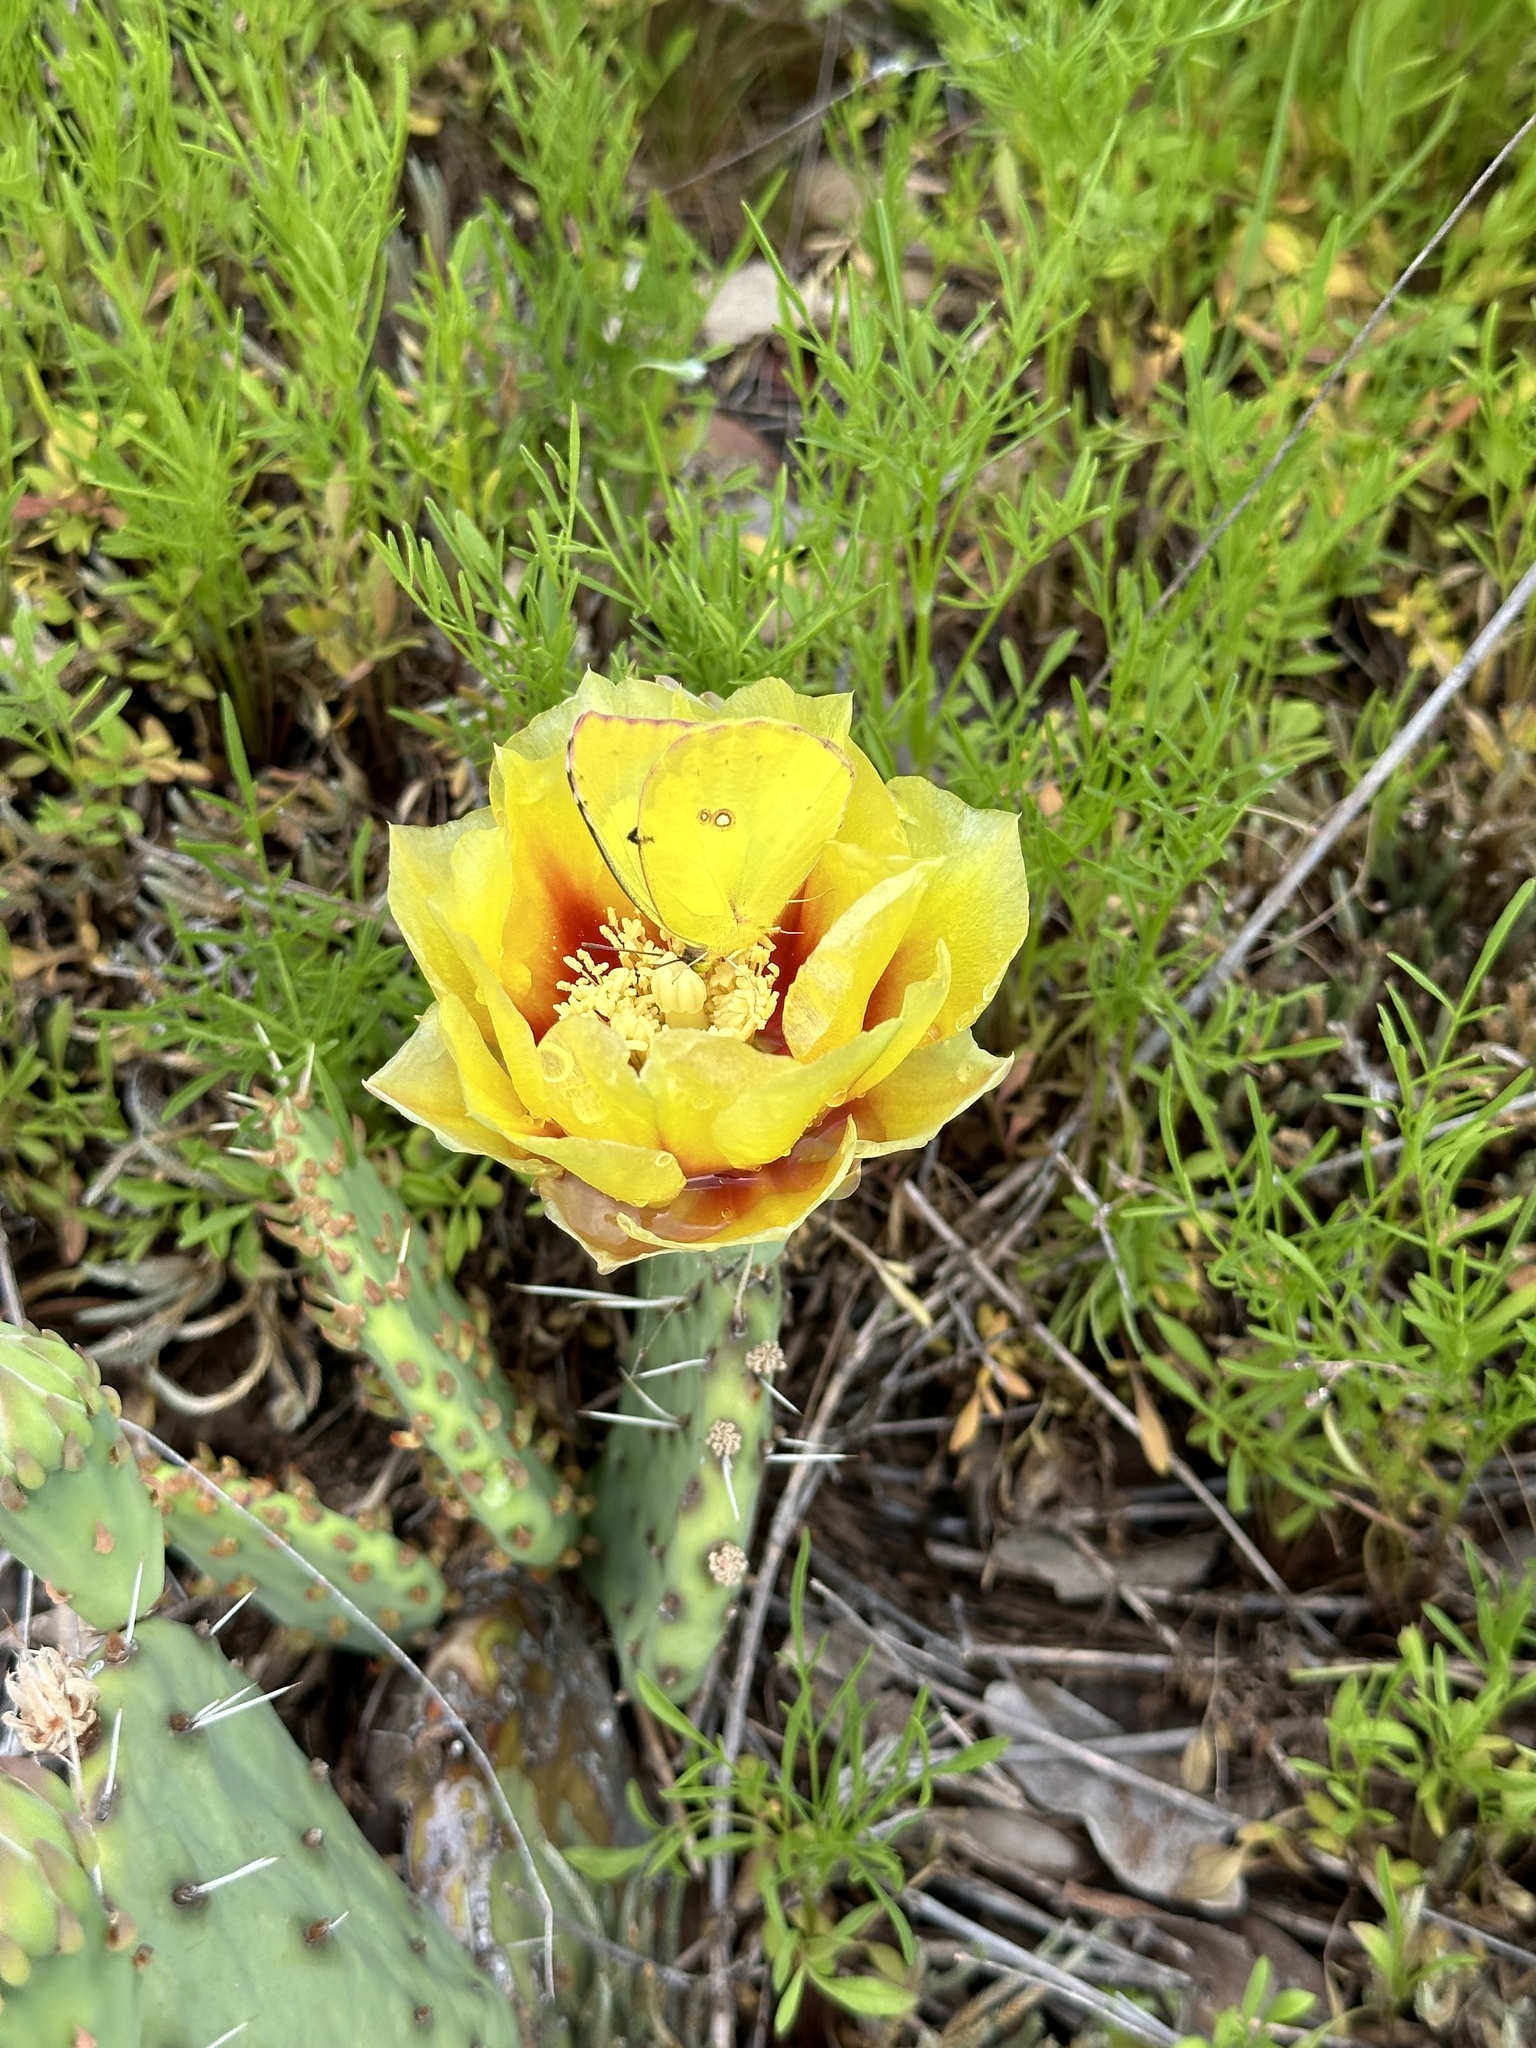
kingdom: Animalia
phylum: Arthropoda
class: Insecta
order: Lepidoptera
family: Pieridae
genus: Zerene
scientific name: Zerene cesonia
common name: Southern dogface
